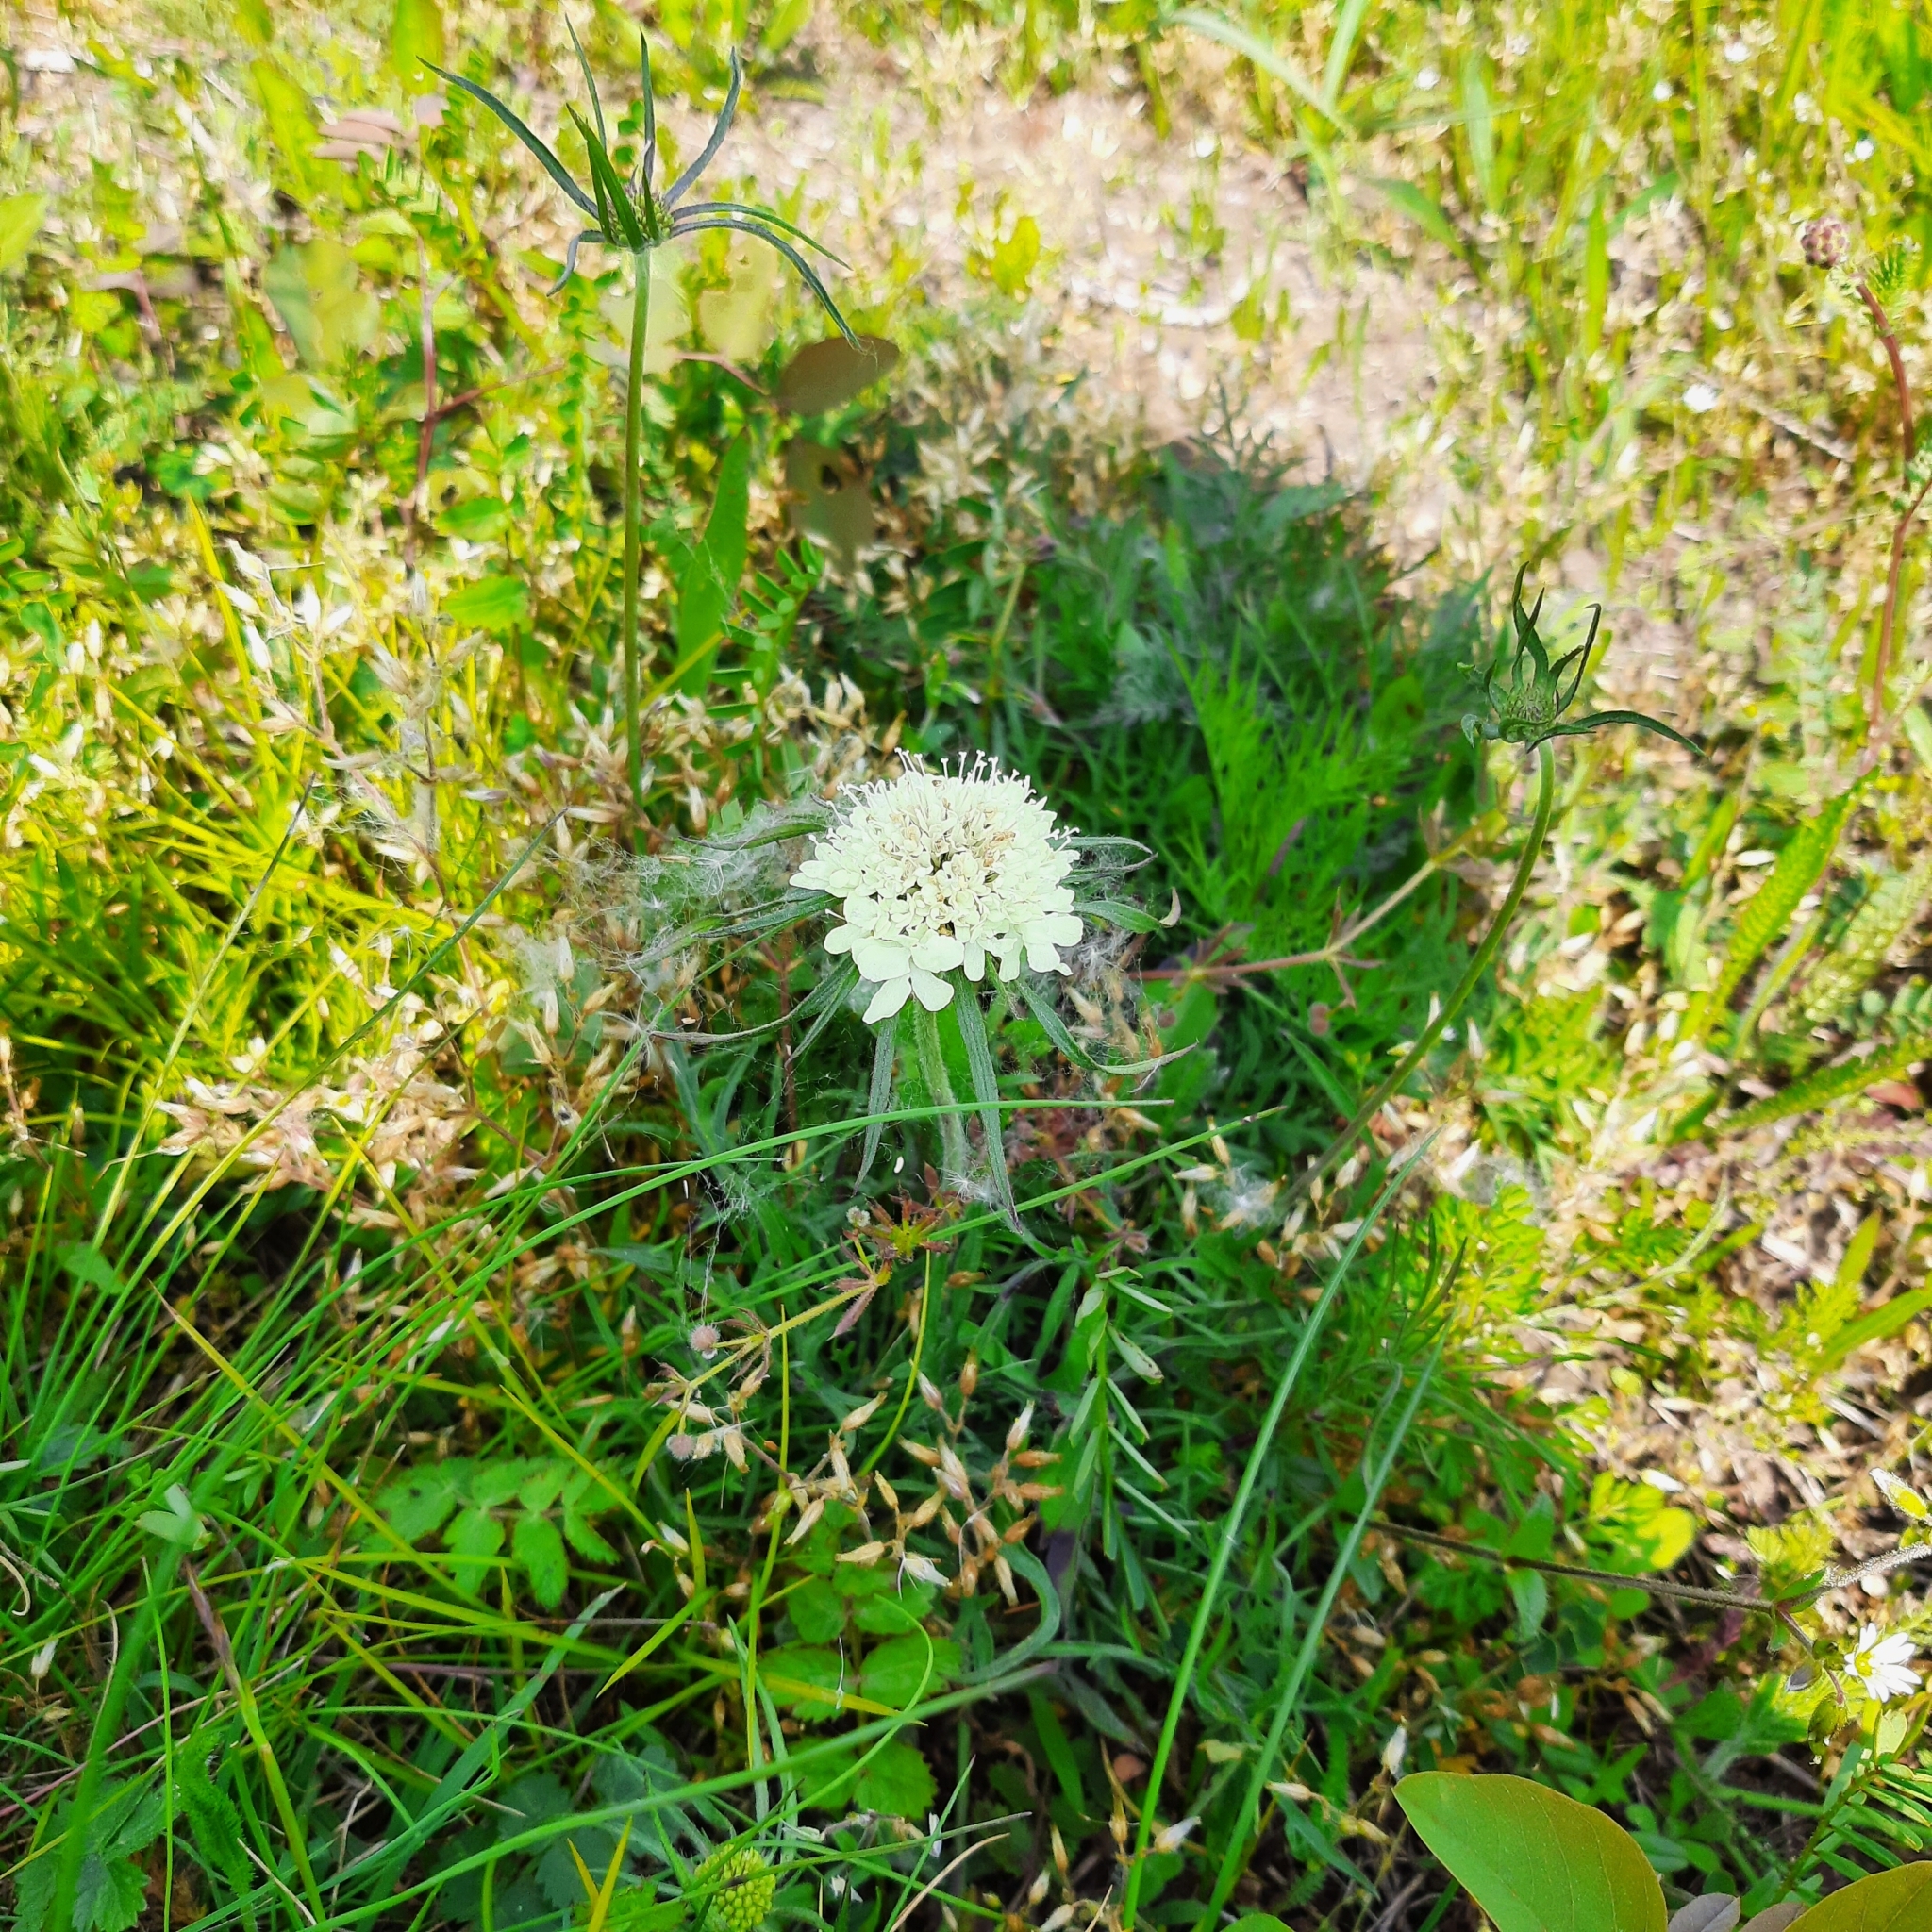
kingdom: Plantae
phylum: Tracheophyta
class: Magnoliopsida
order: Dipsacales
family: Caprifoliaceae
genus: Scabiosa
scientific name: Scabiosa ochroleuca
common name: Cream pincushions
